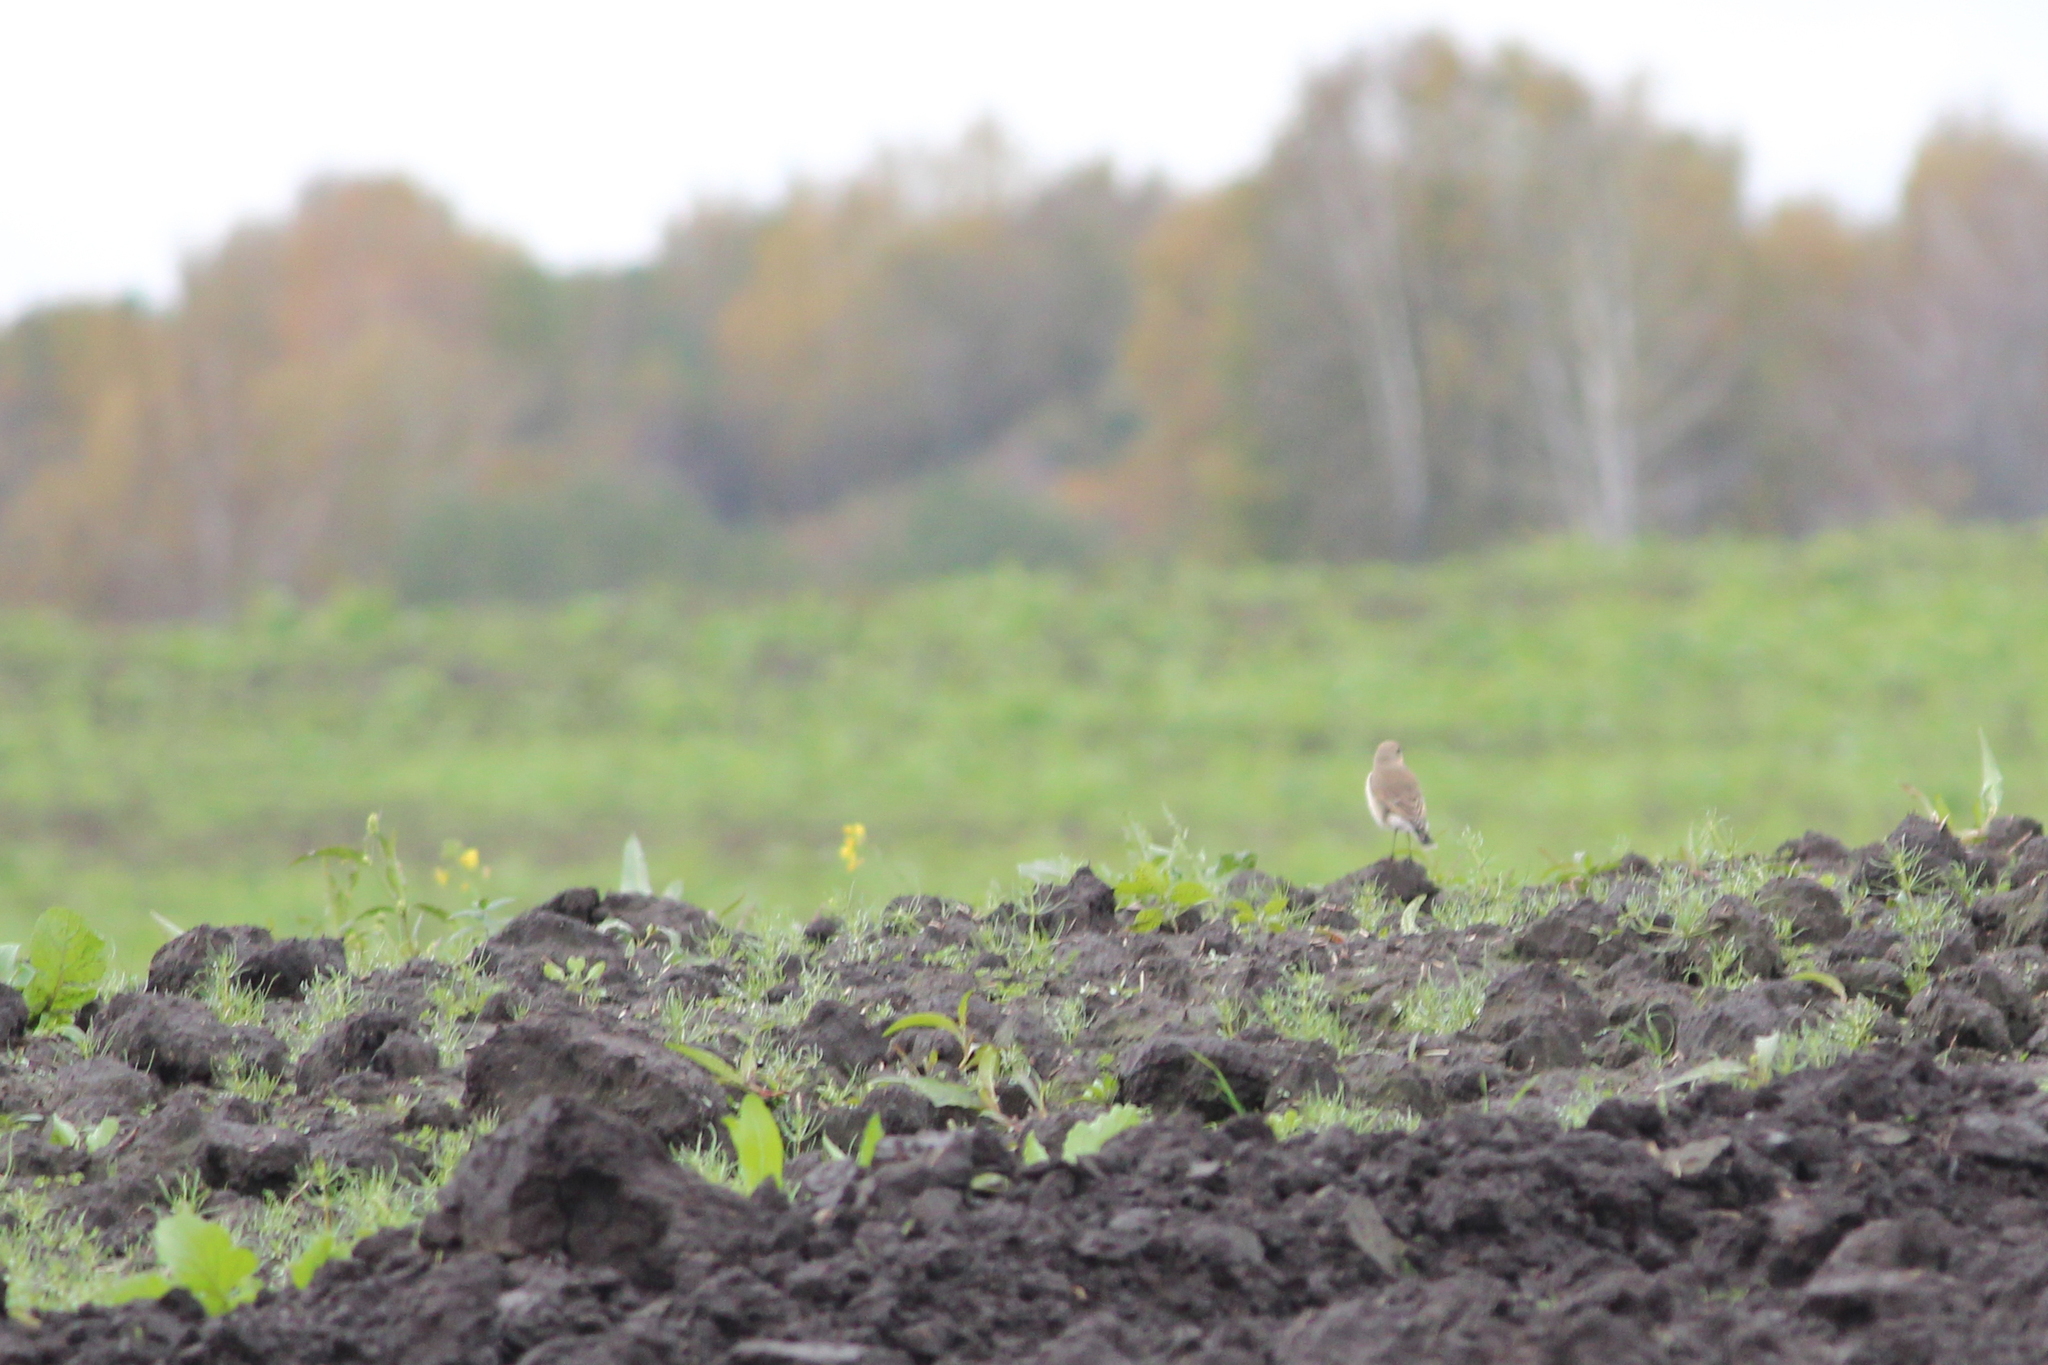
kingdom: Animalia
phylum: Chordata
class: Aves
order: Passeriformes
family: Muscicapidae
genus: Oenanthe
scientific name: Oenanthe oenanthe
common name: Northern wheatear
